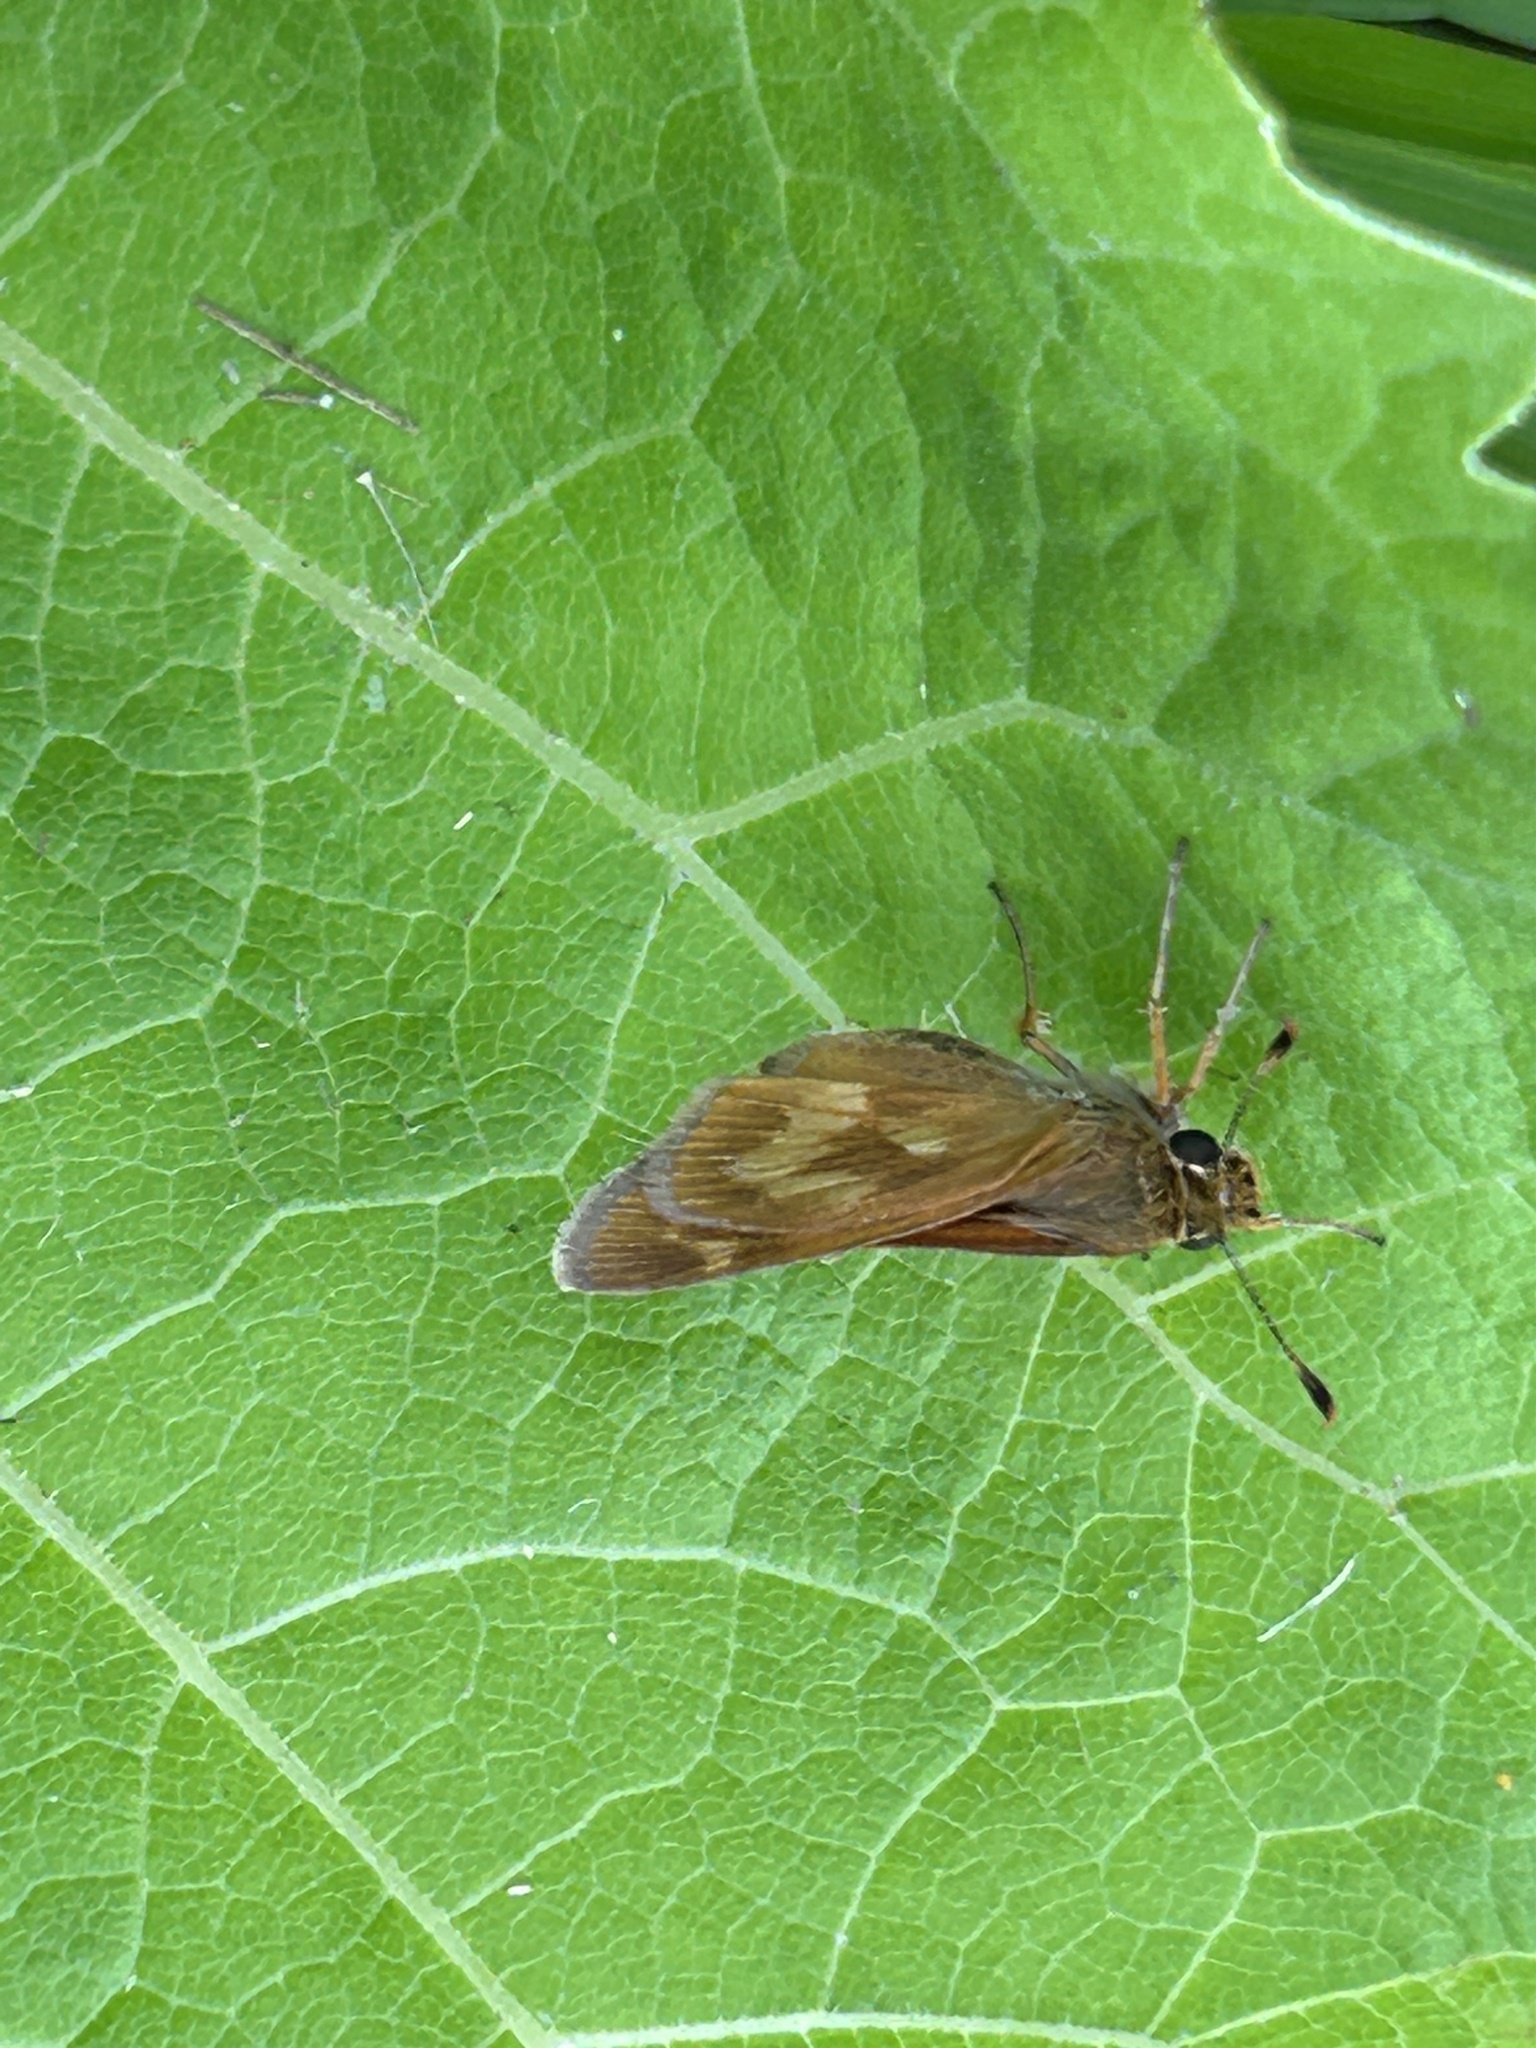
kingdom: Animalia
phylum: Arthropoda
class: Insecta
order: Lepidoptera
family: Hesperiidae
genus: Polites
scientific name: Polites mystic
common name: Long dash
